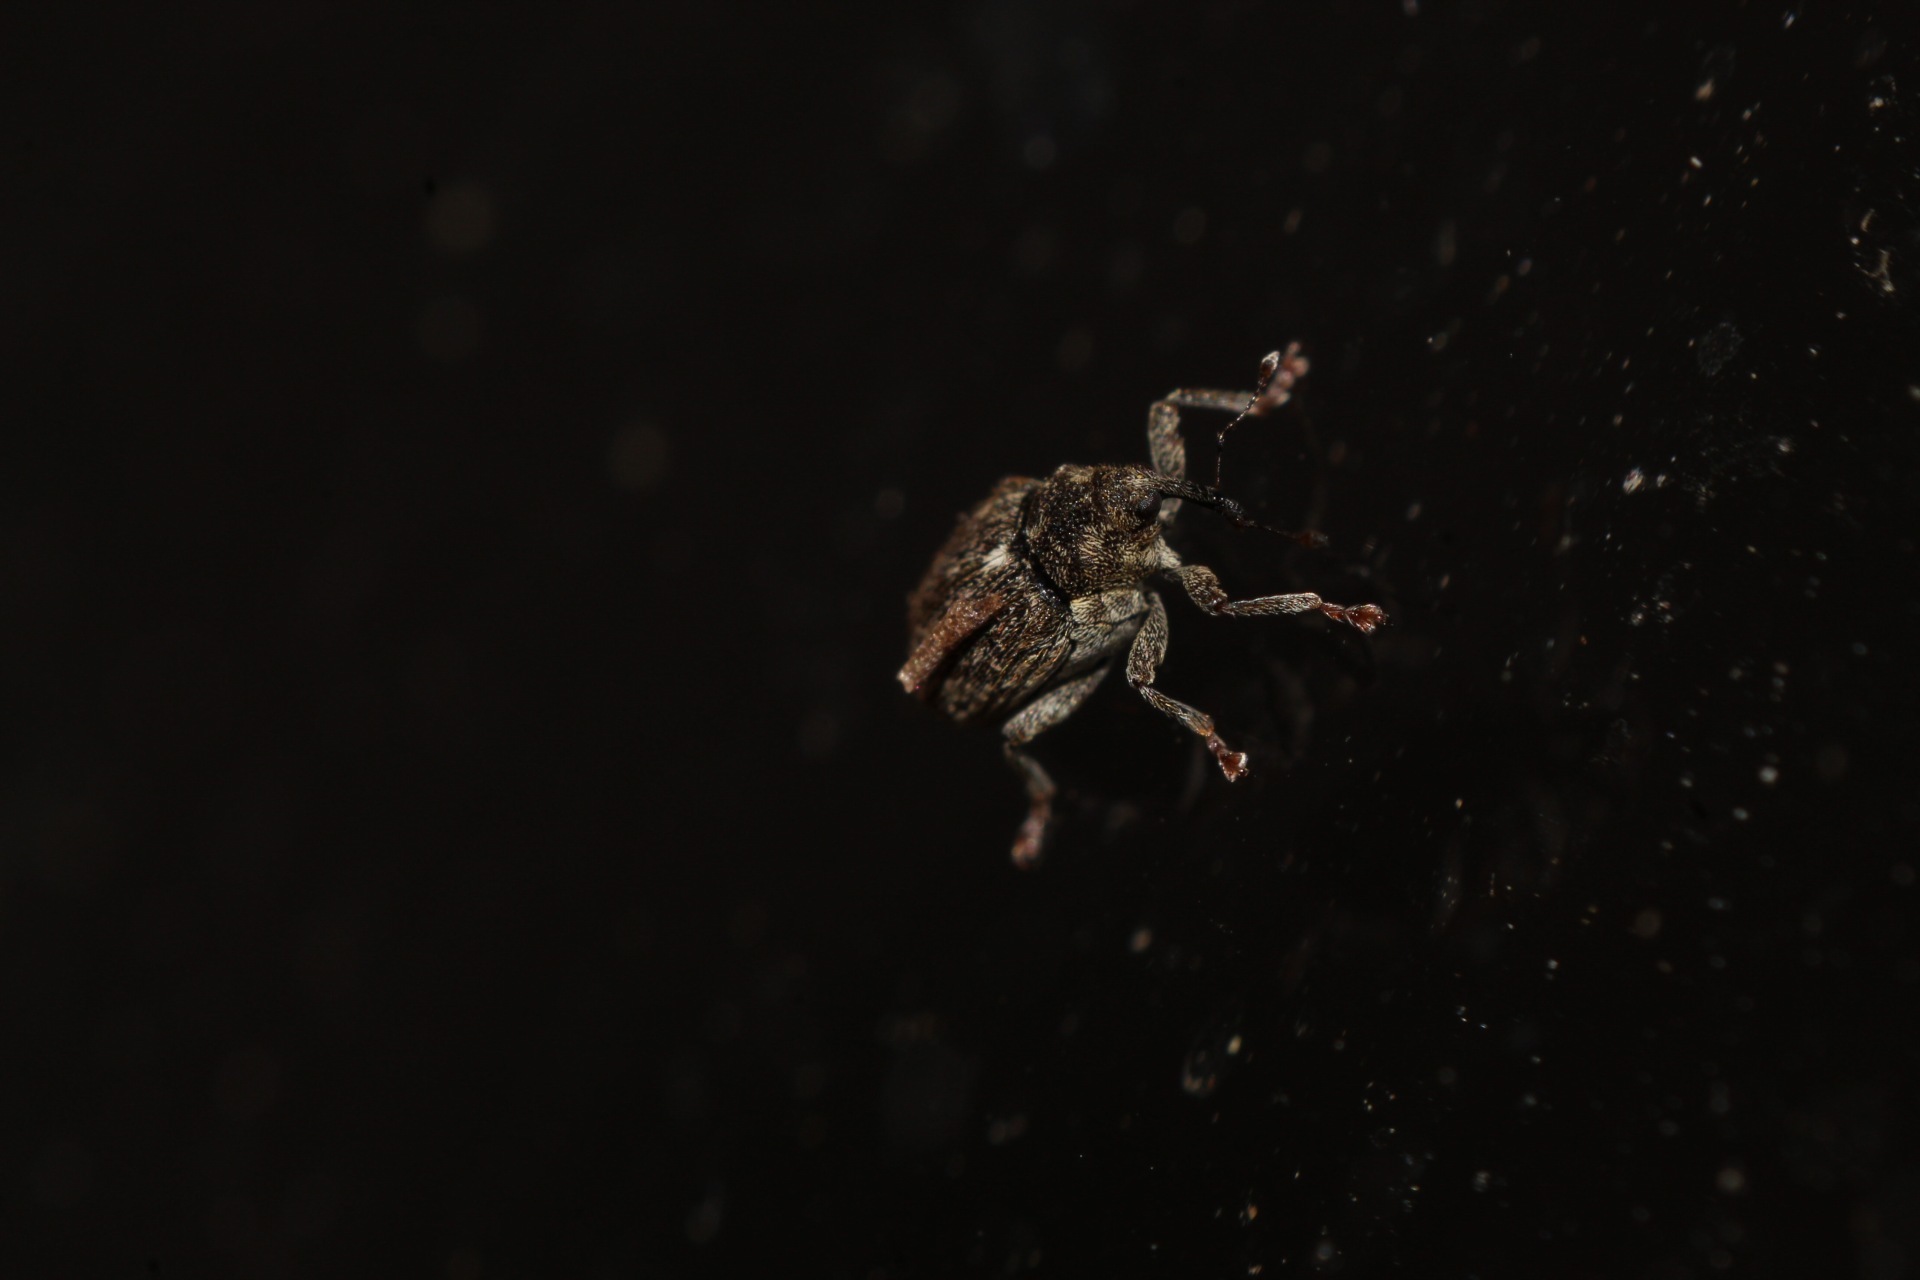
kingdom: Animalia
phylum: Arthropoda
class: Insecta
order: Coleoptera
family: Curculionidae
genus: Ceutorhynchus
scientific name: Ceutorhynchus picitarsis
